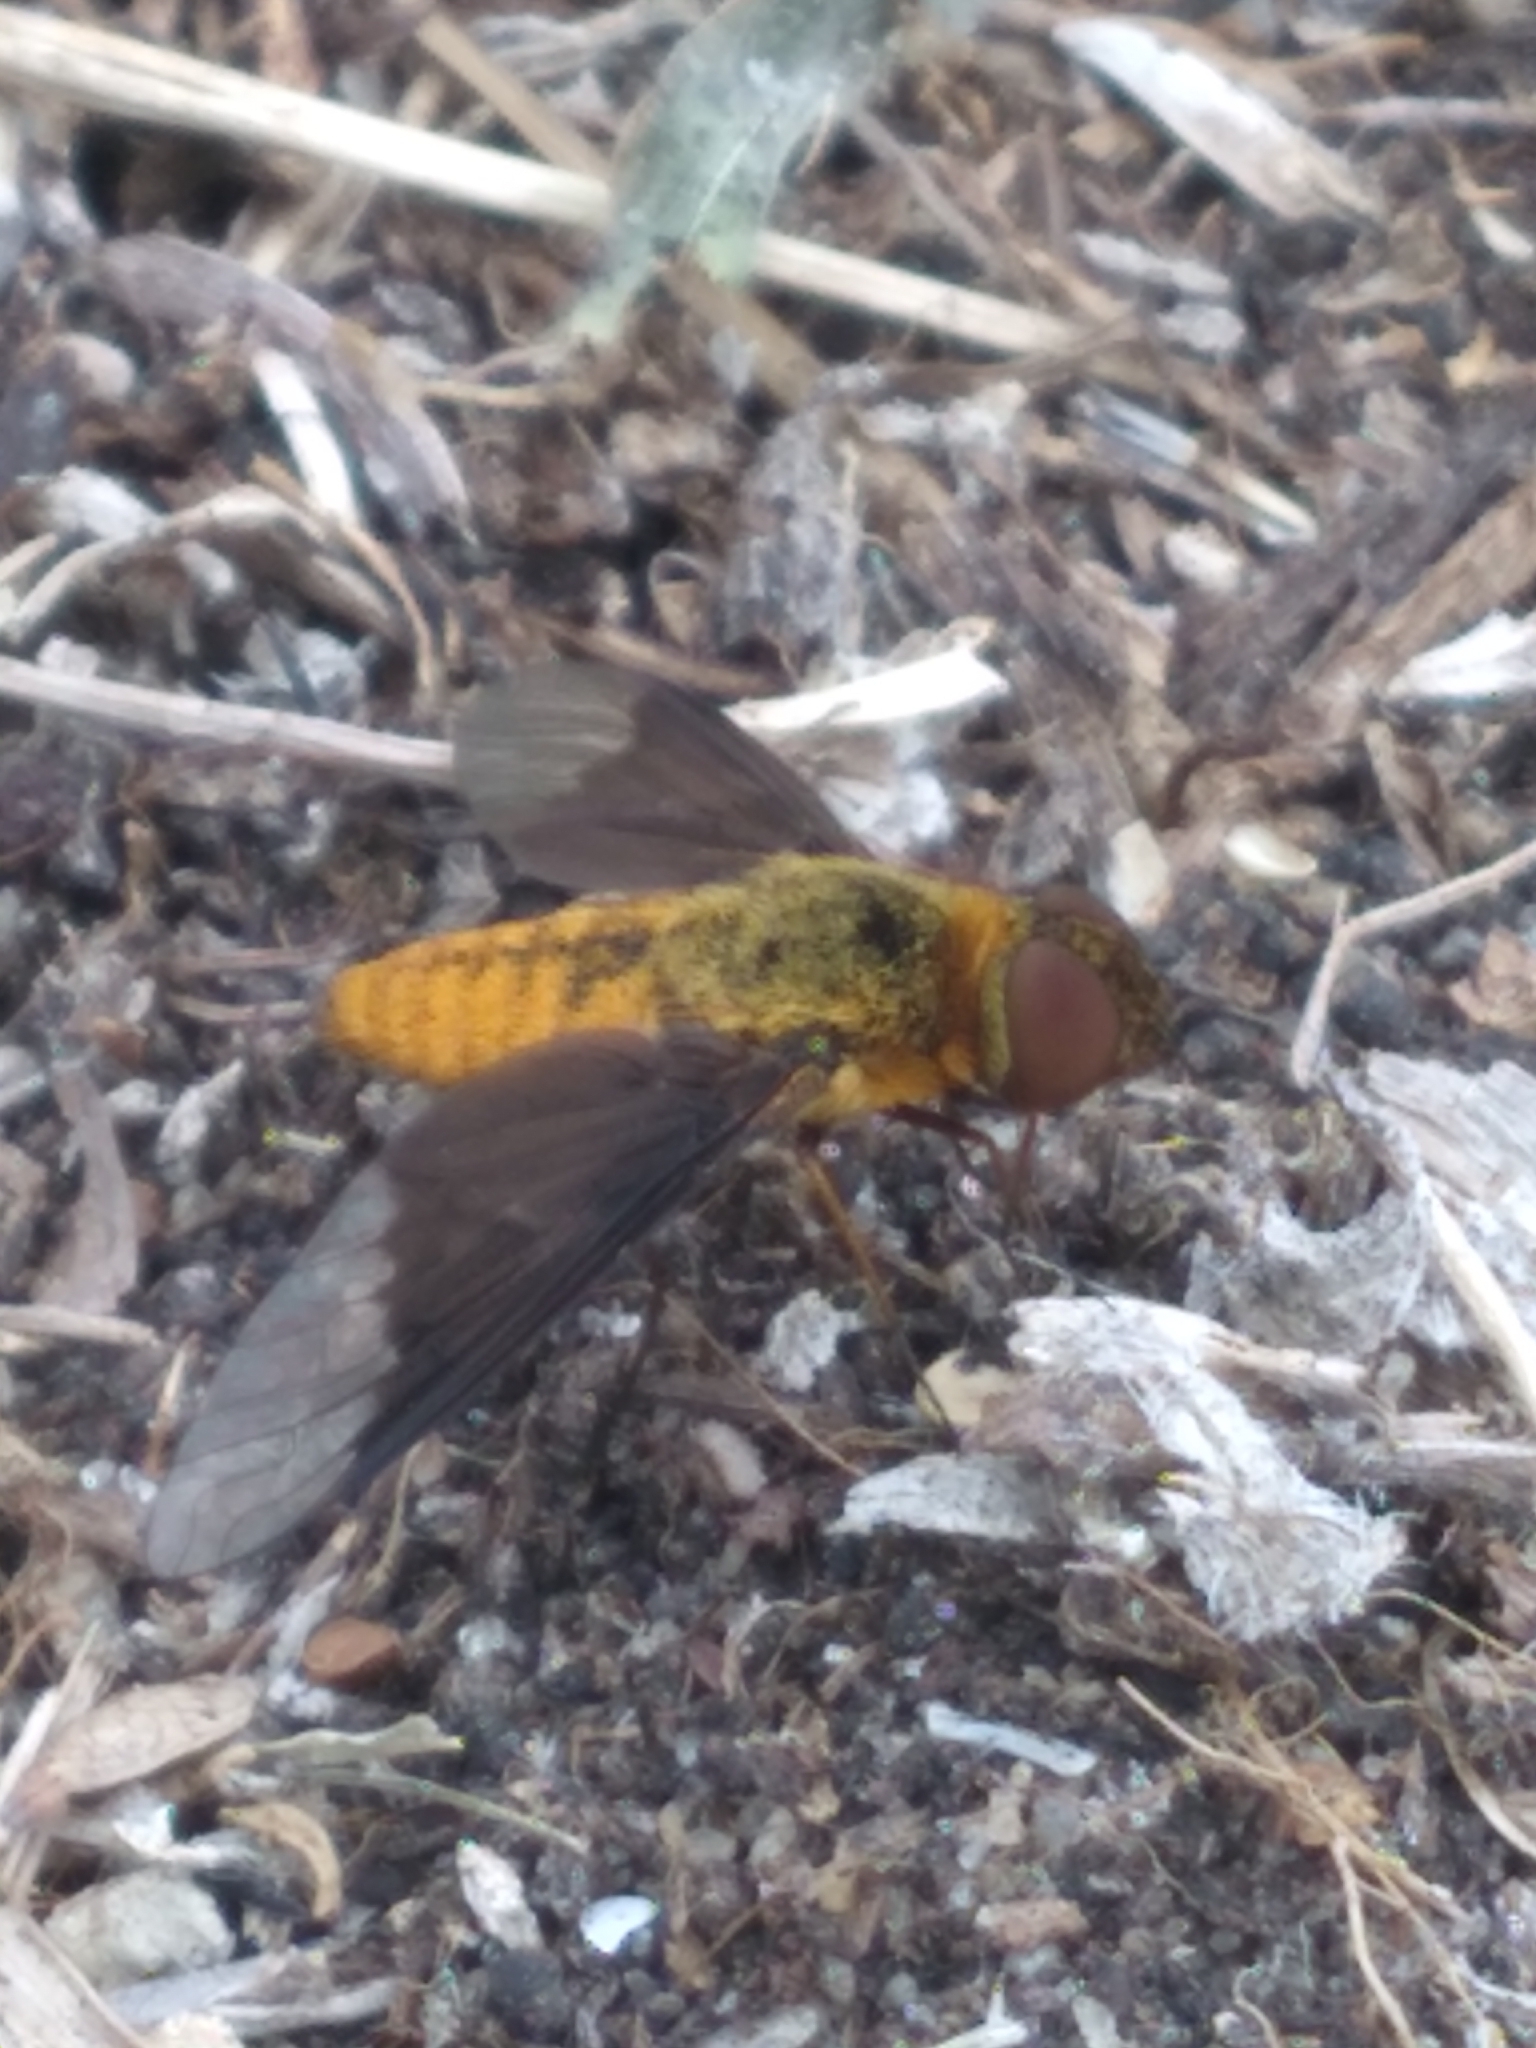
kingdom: Animalia
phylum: Arthropoda
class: Insecta
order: Diptera
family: Bombyliidae
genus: Chrysanthrax
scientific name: Chrysanthrax cypris
